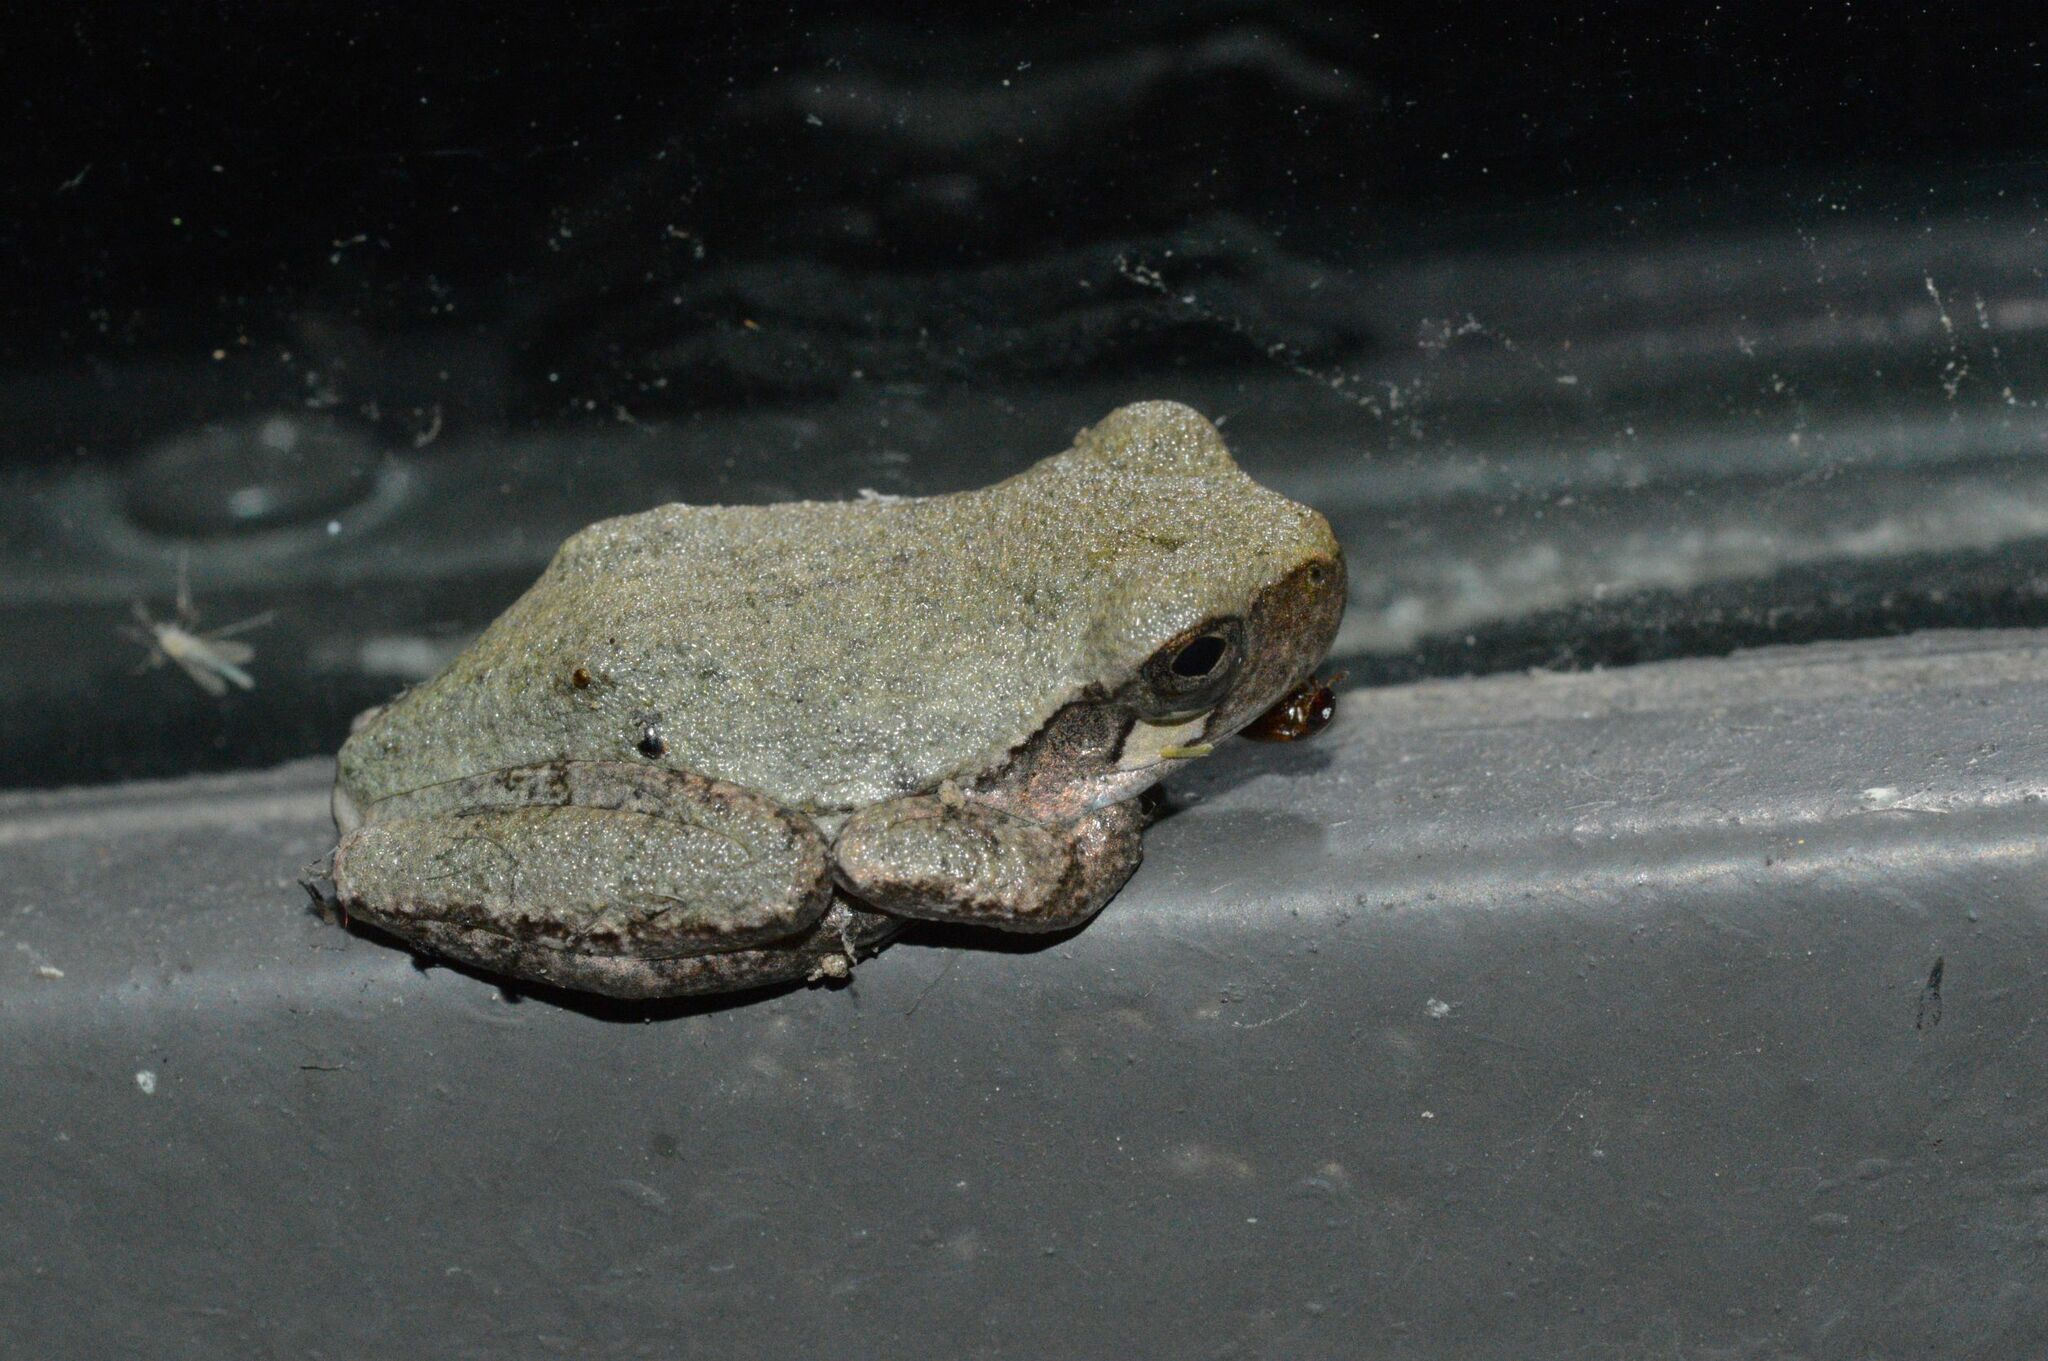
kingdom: Animalia
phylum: Chordata
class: Amphibia
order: Anura
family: Hylidae
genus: Dryophytes
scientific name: Dryophytes chrysoscelis
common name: Cope's gray treefrog
